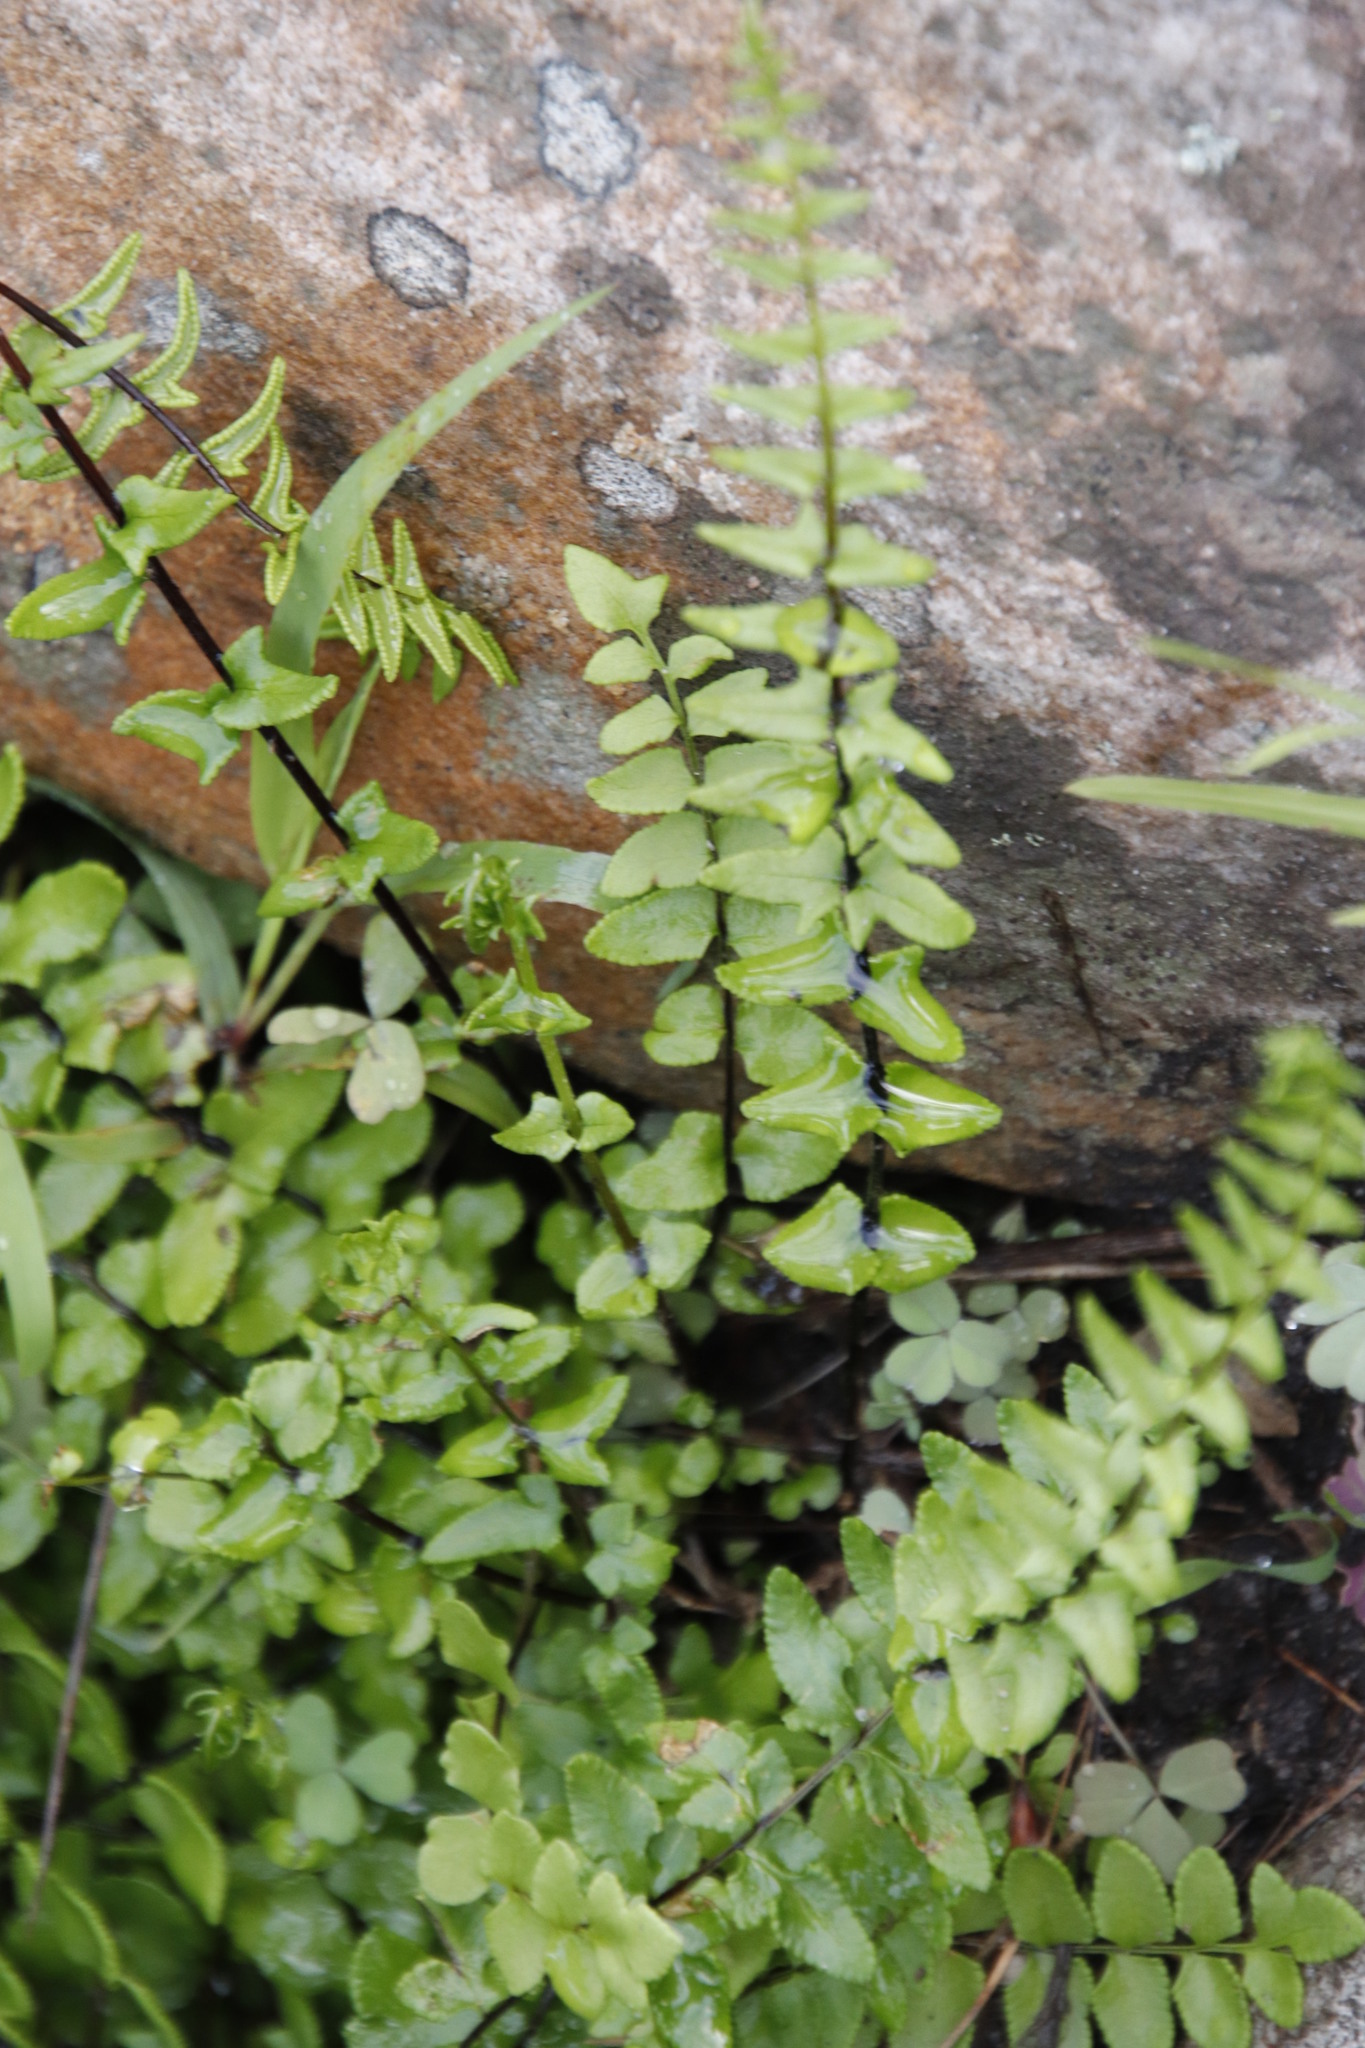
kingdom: Plantae
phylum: Tracheophyta
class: Polypodiopsida
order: Polypodiales
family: Pteridaceae
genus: Cheilanthes
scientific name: Cheilanthes hastata
